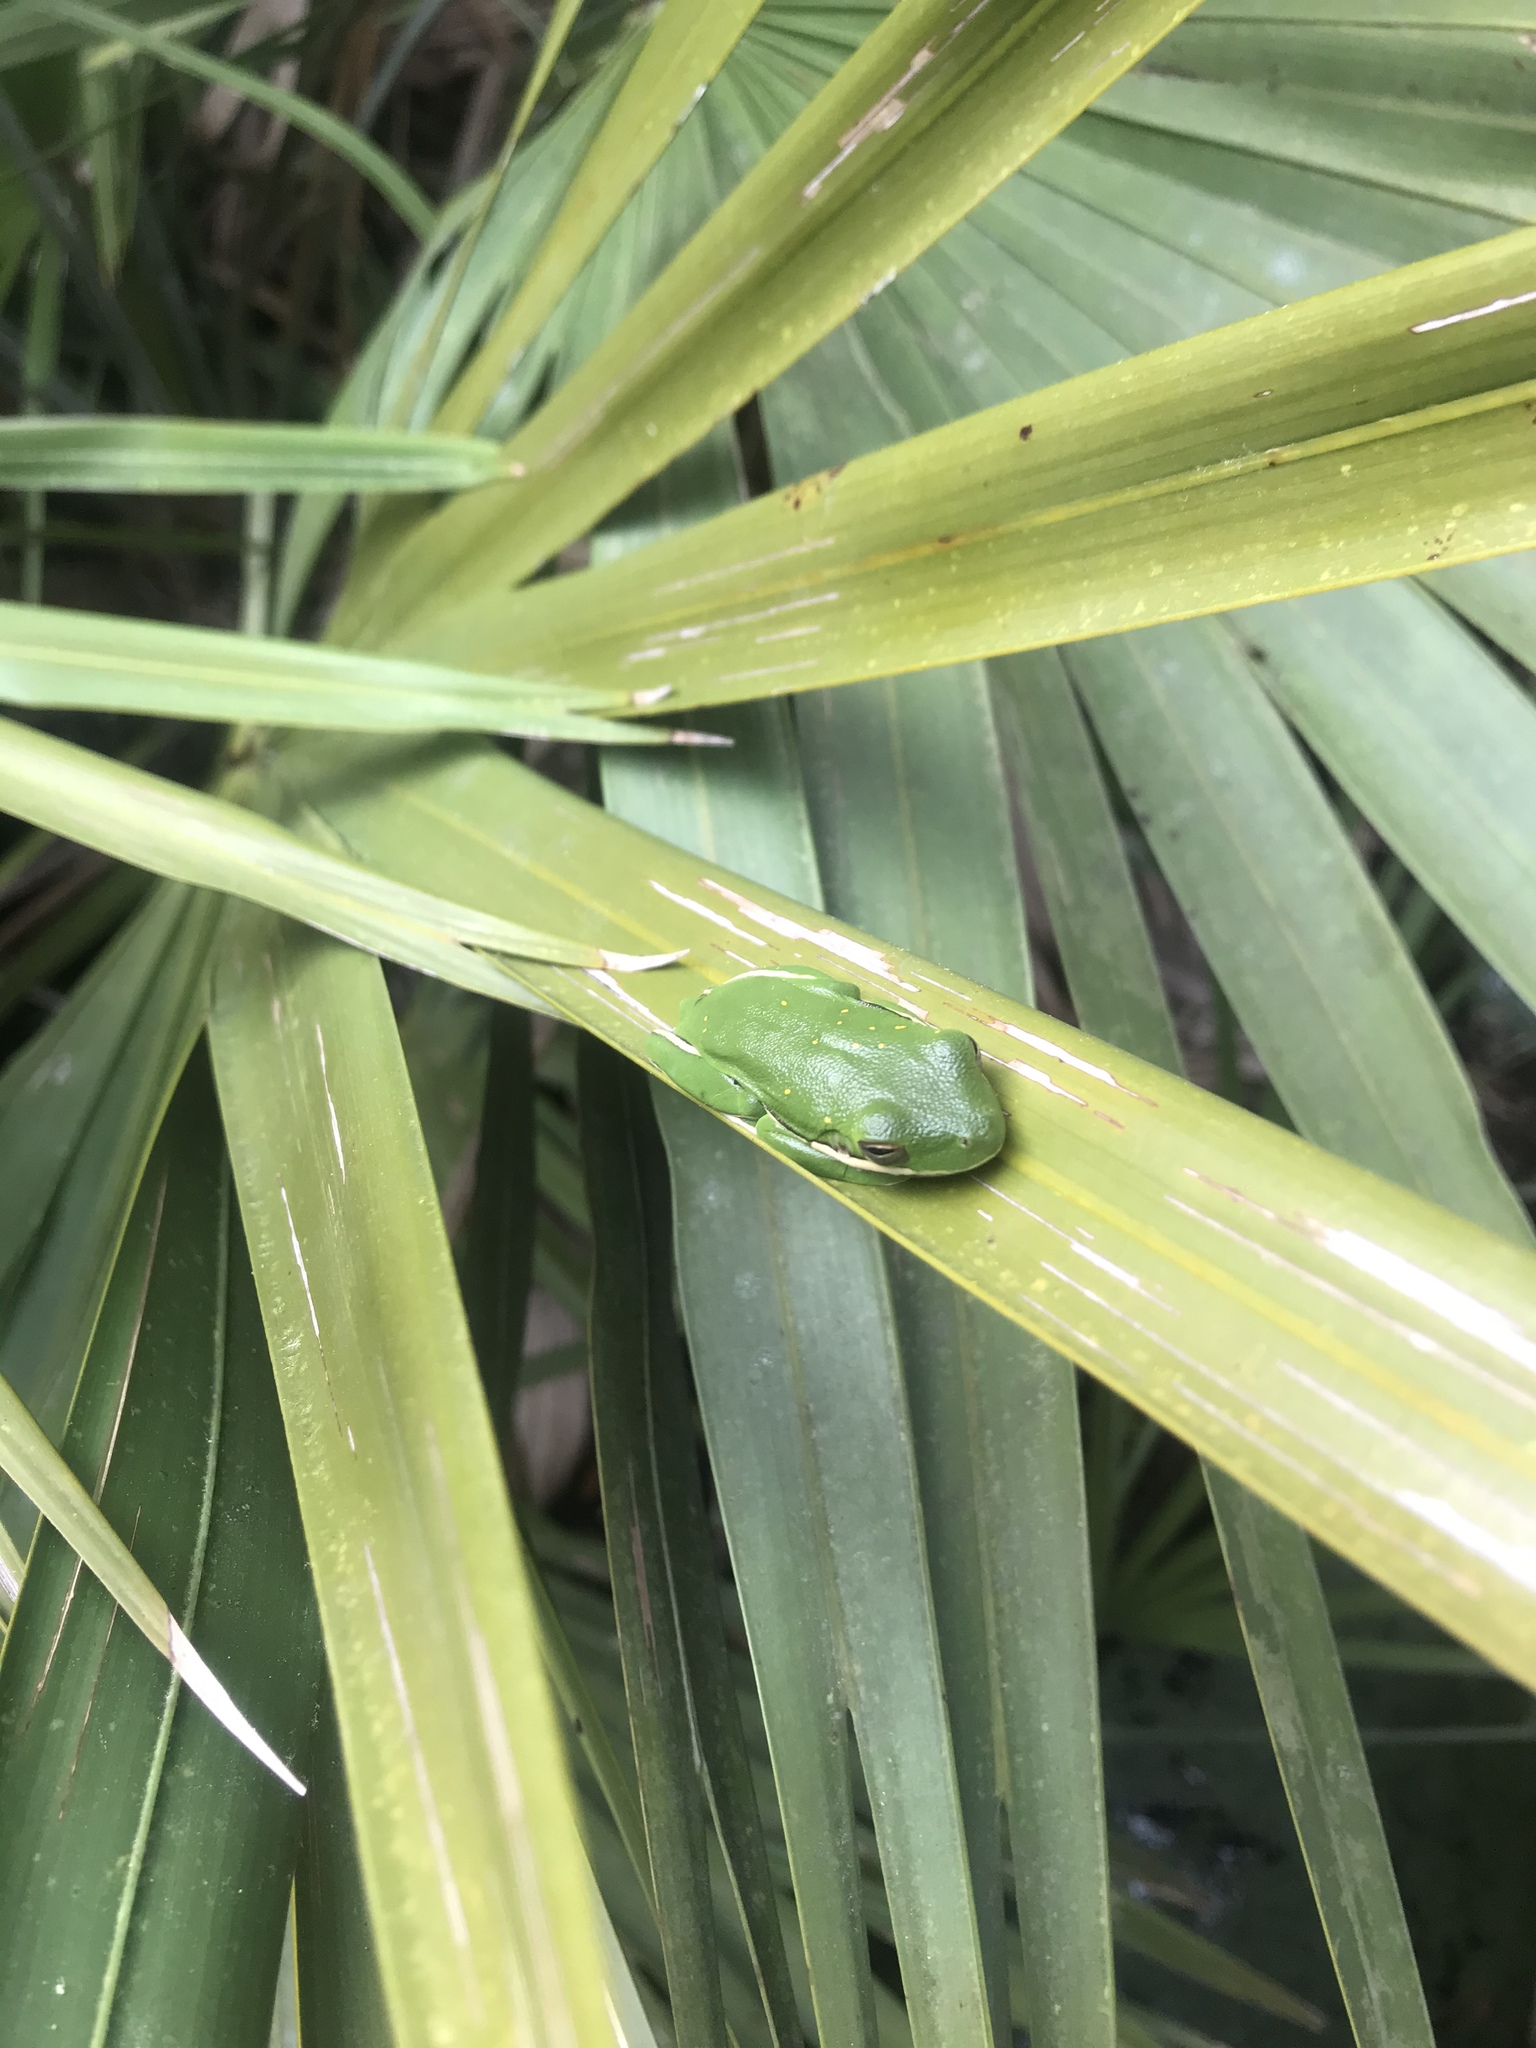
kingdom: Animalia
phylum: Chordata
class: Amphibia
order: Anura
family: Hylidae
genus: Dryophytes
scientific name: Dryophytes cinereus
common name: Green treefrog
